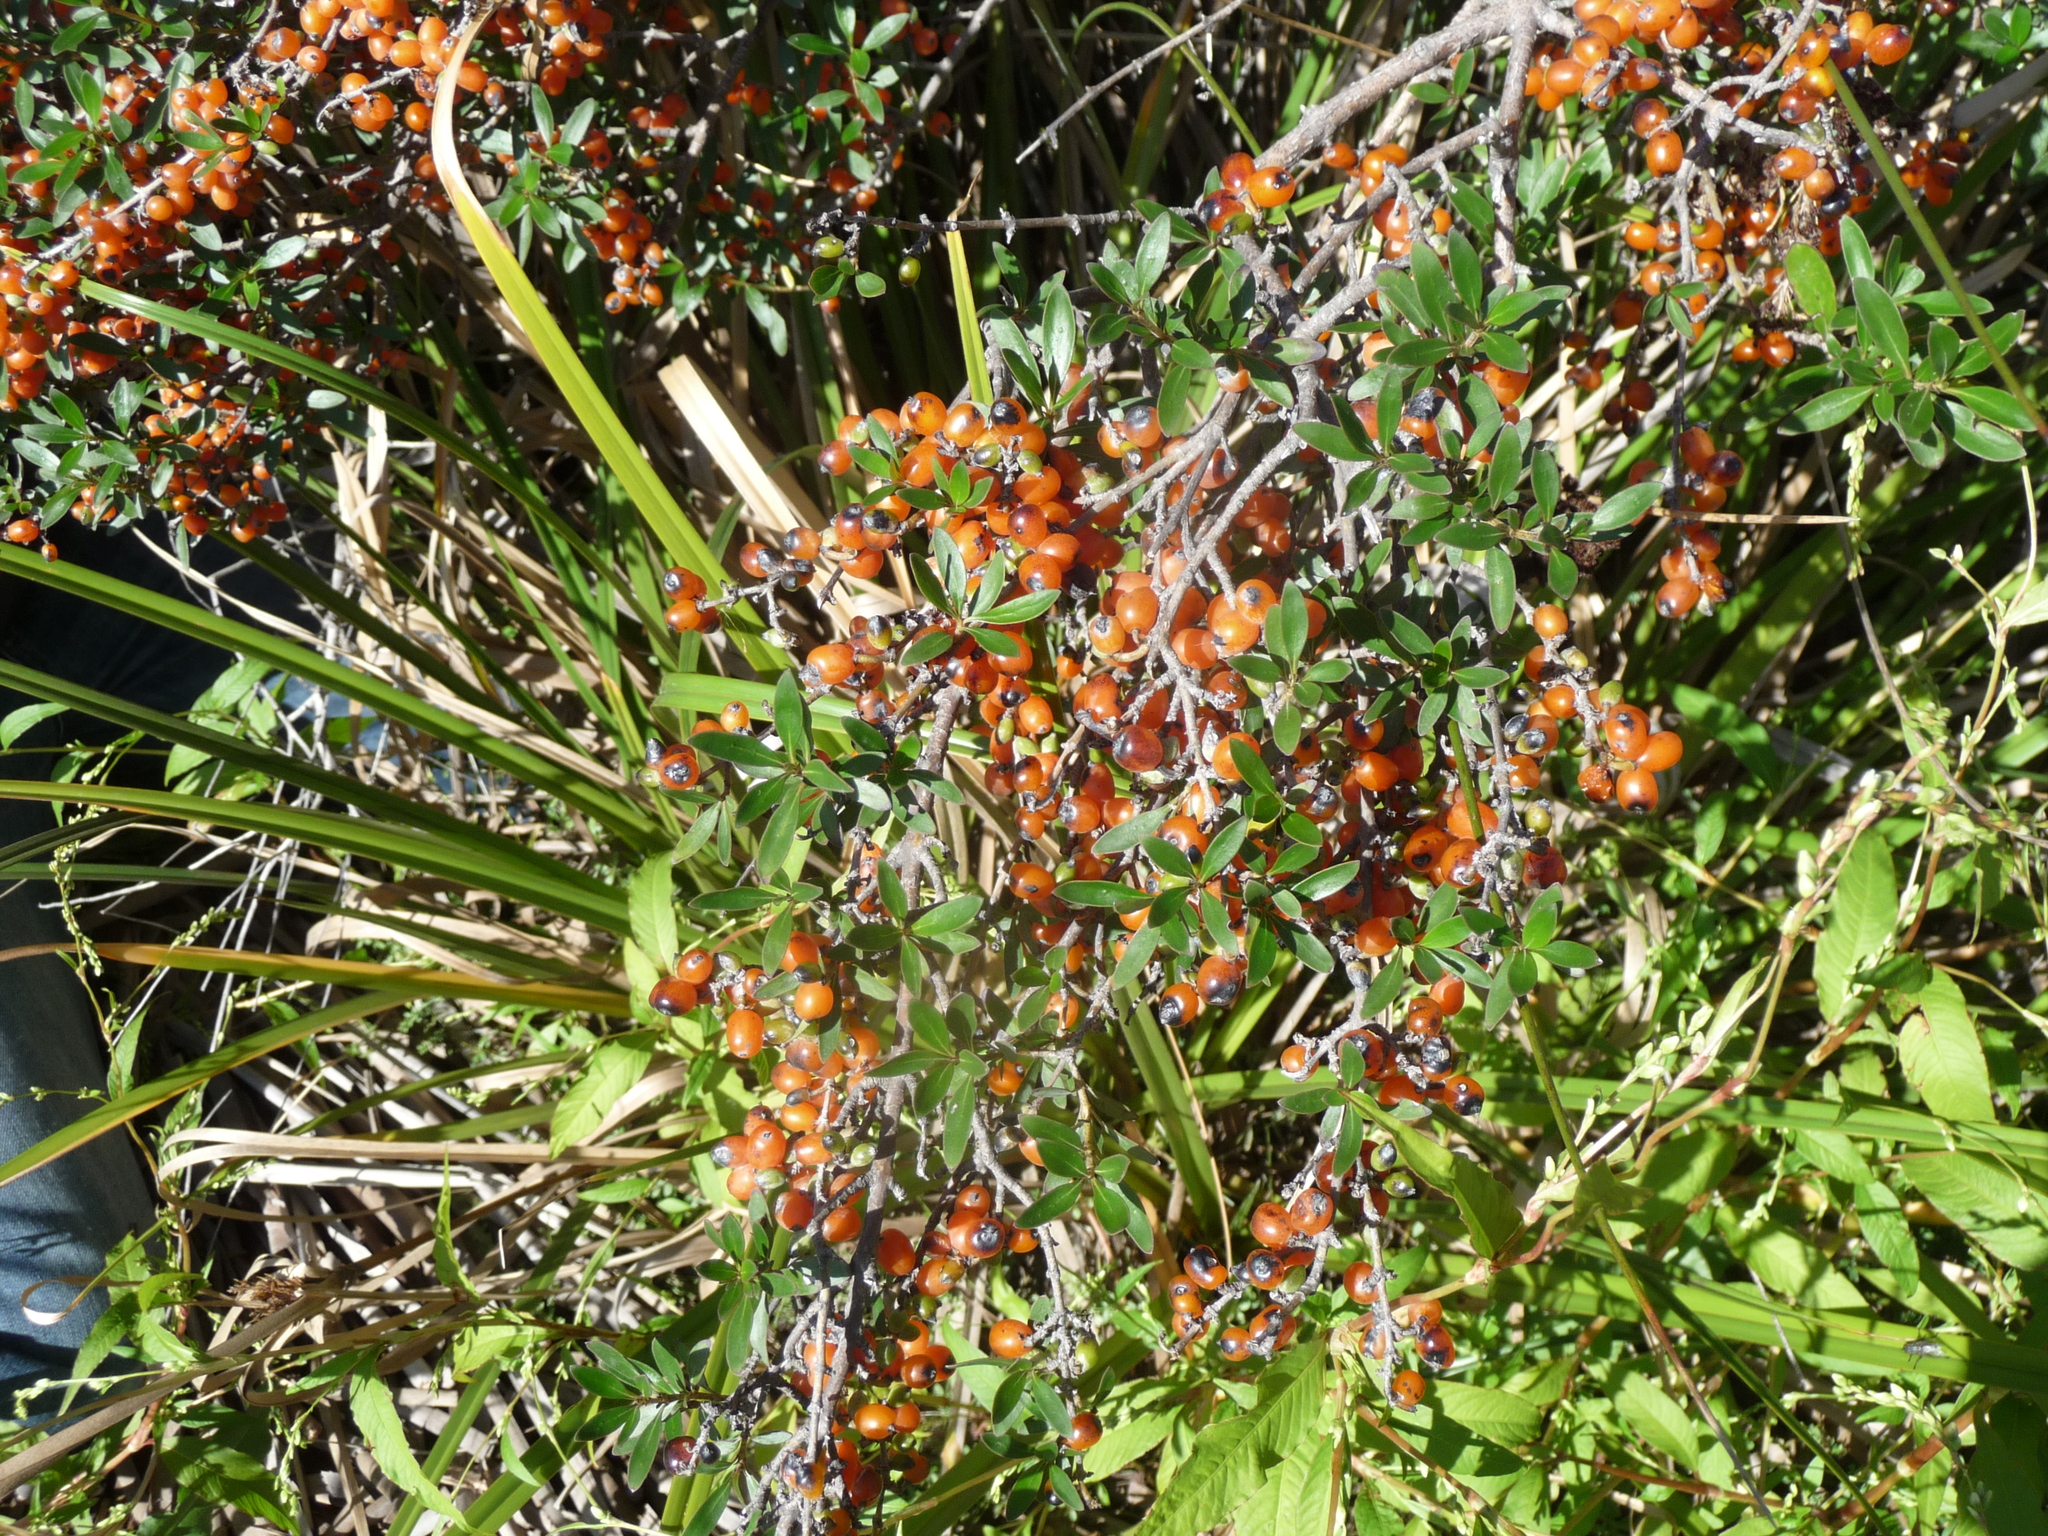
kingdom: Plantae
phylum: Tracheophyta
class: Magnoliopsida
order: Gentianales
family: Rubiaceae
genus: Coprosma
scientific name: Coprosma cunninghamii
